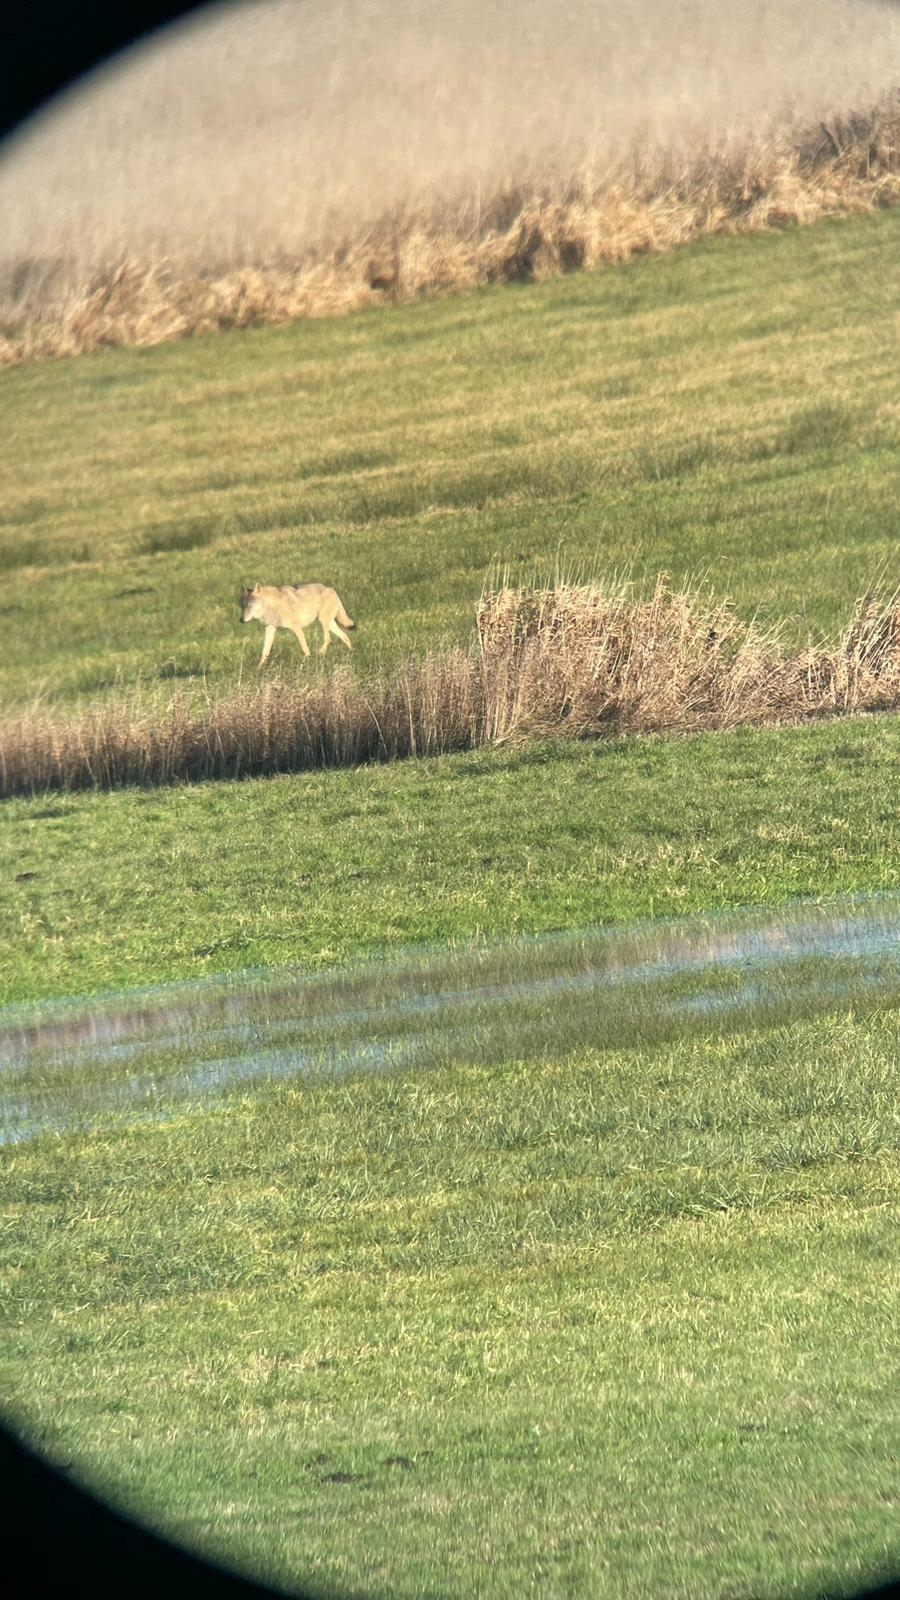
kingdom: Animalia
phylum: Chordata
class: Mammalia
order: Carnivora
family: Canidae
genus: Canis
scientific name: Canis lupus
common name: Gray wolf
